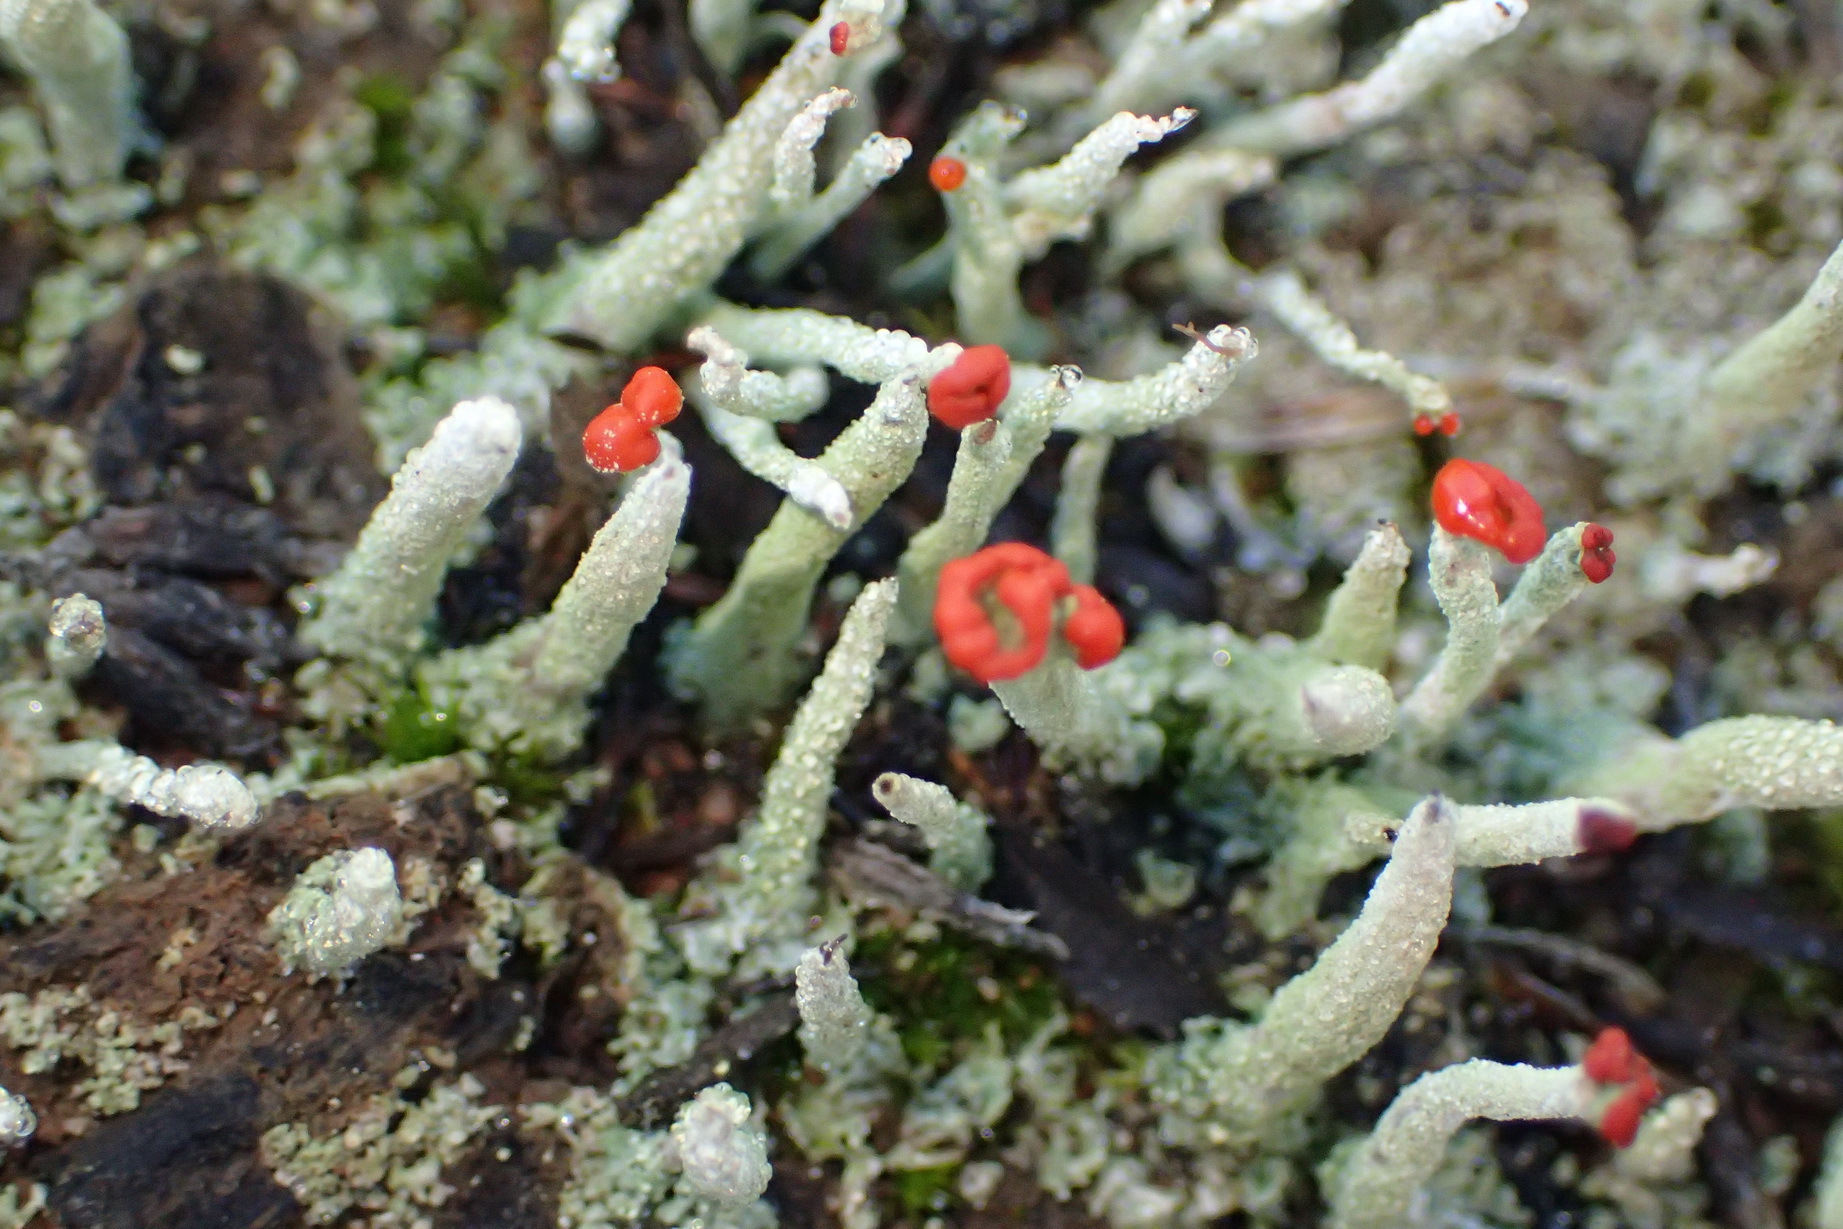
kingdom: Fungi
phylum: Ascomycota
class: Lecanoromycetes
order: Lecanorales
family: Cladoniaceae
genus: Cladonia
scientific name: Cladonia macilenta
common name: Lipstick powderhorn
